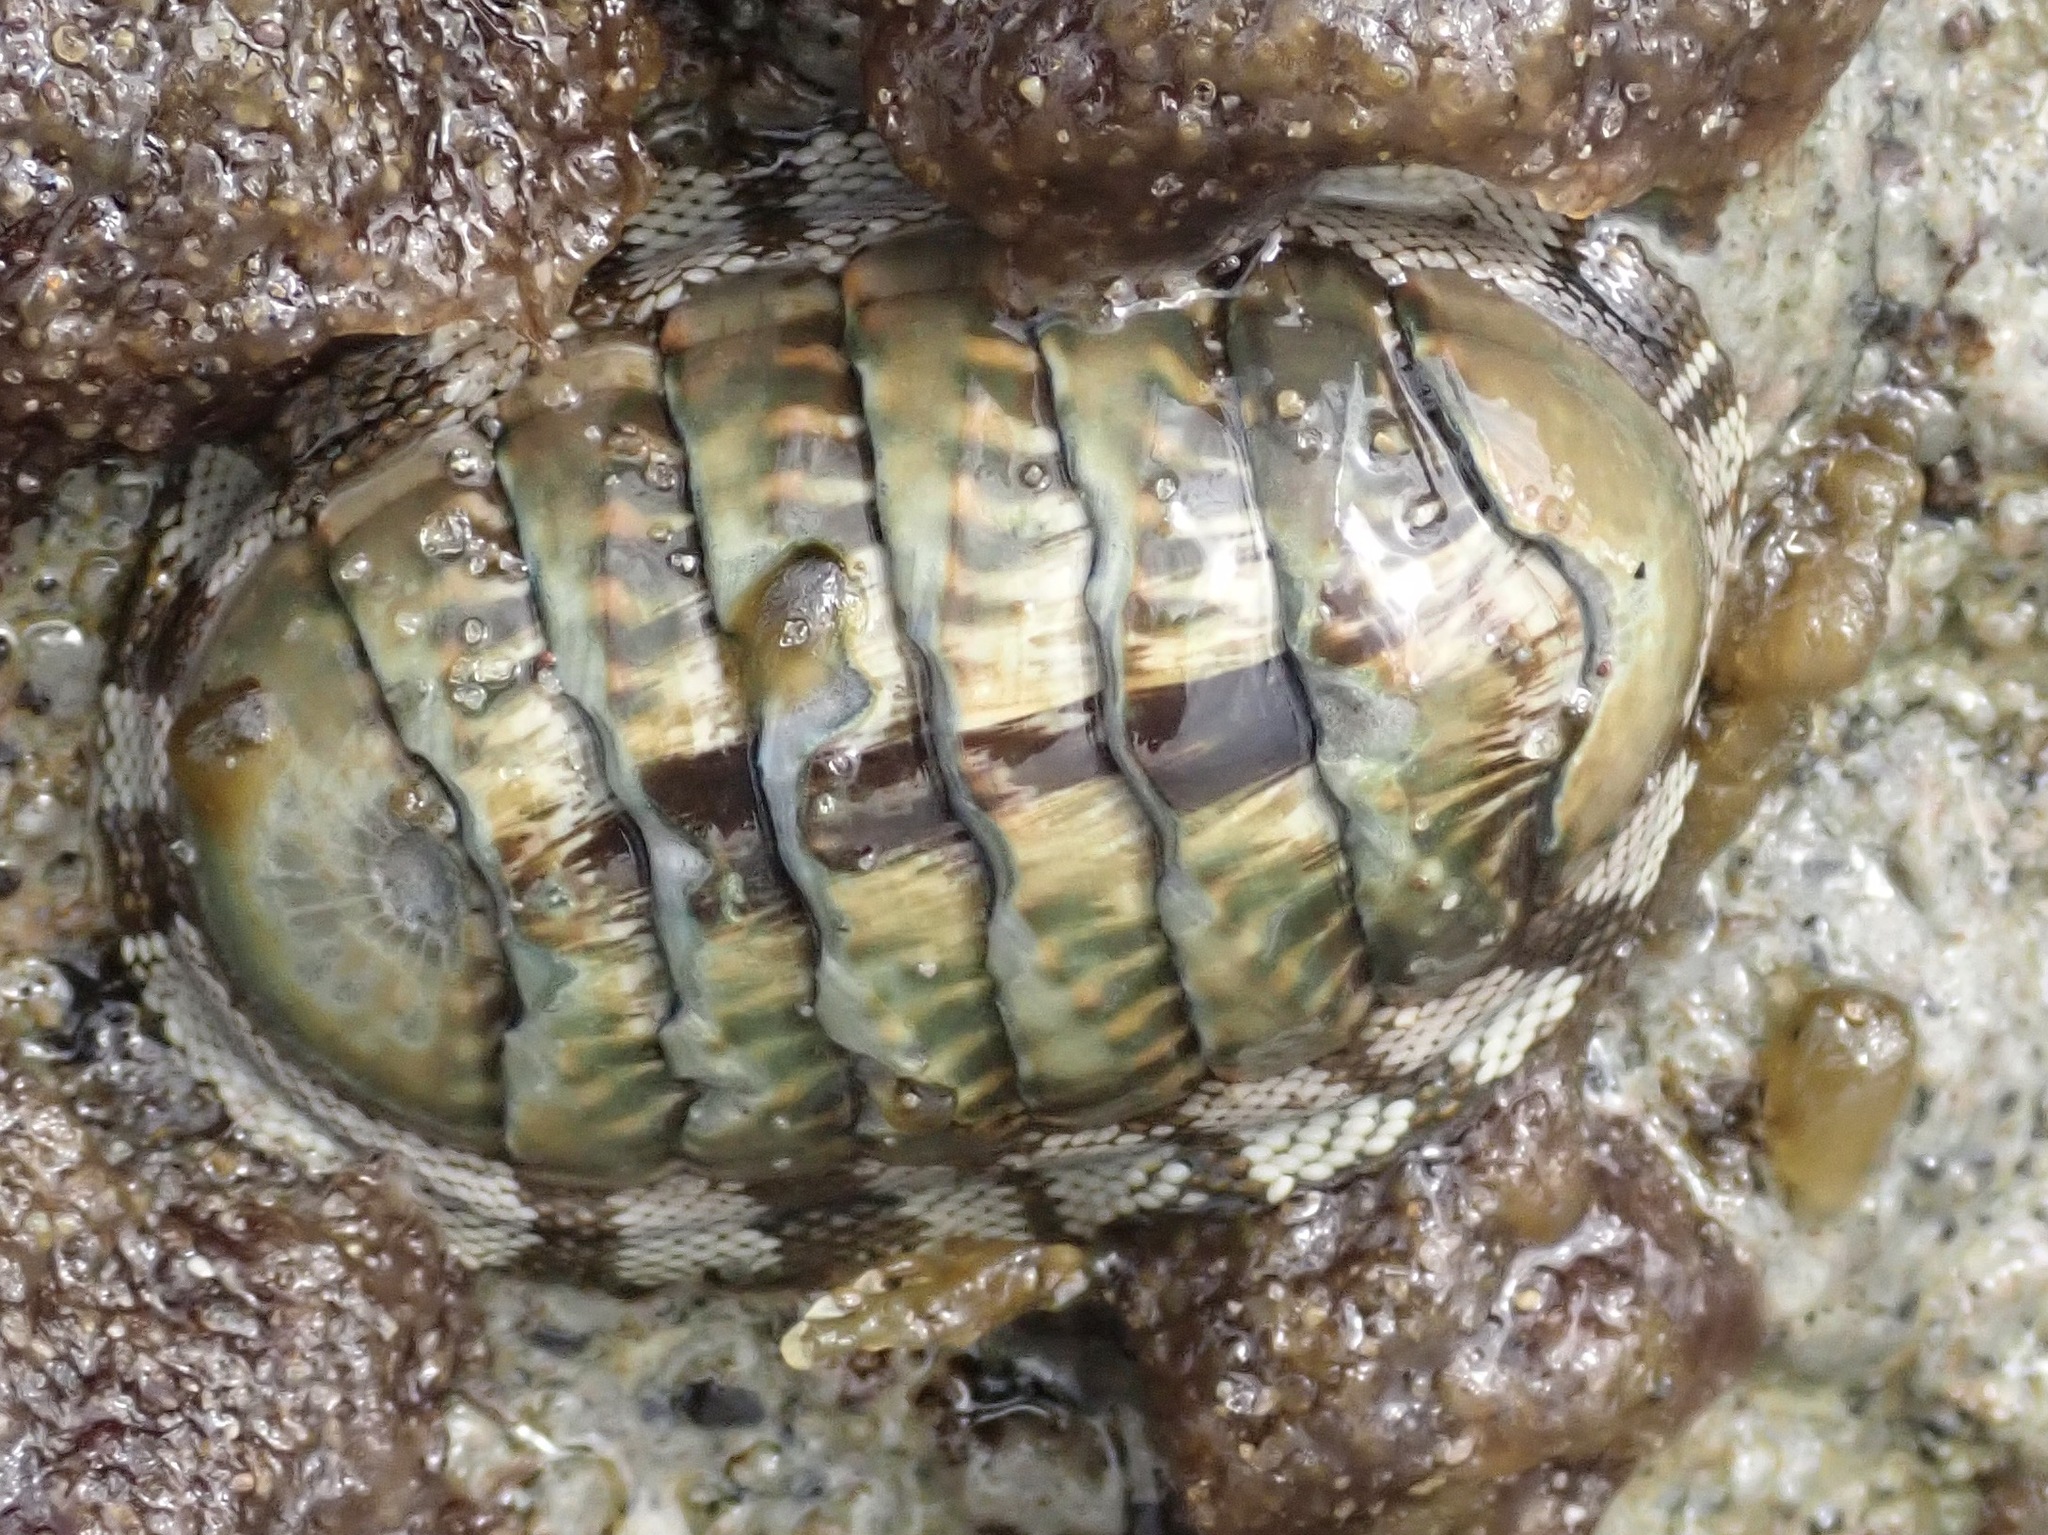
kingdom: Animalia
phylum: Mollusca
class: Polyplacophora
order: Chitonida
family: Chitonidae
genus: Chiton
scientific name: Chiton viridis
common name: Long back
